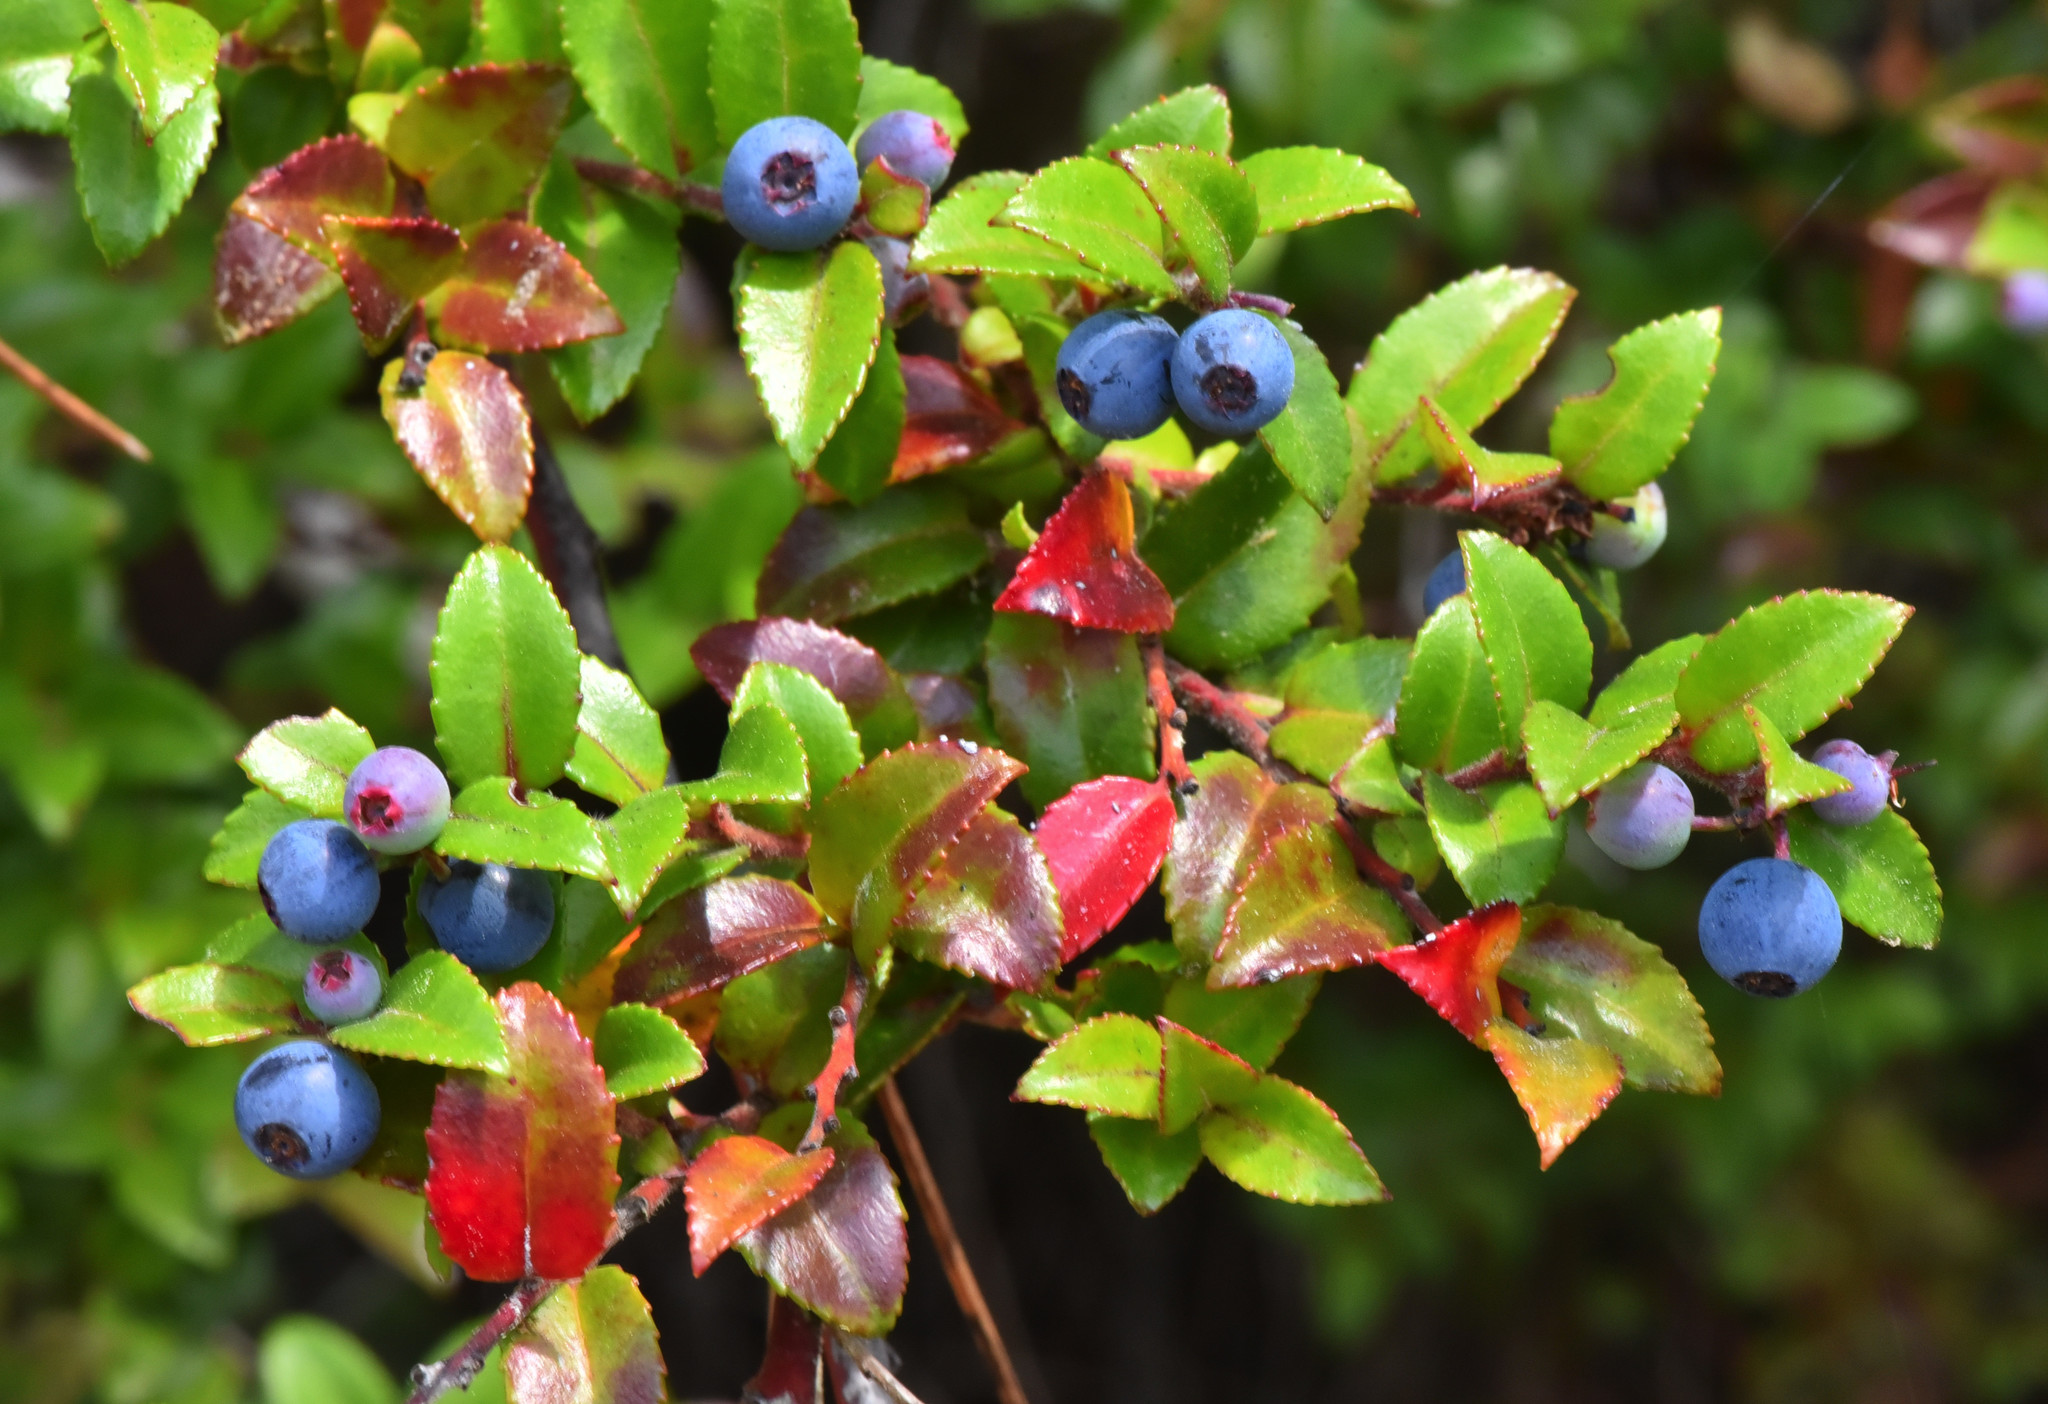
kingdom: Plantae
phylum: Tracheophyta
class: Magnoliopsida
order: Ericales
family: Ericaceae
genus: Vaccinium
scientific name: Vaccinium ovatum
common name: California-huckleberry
